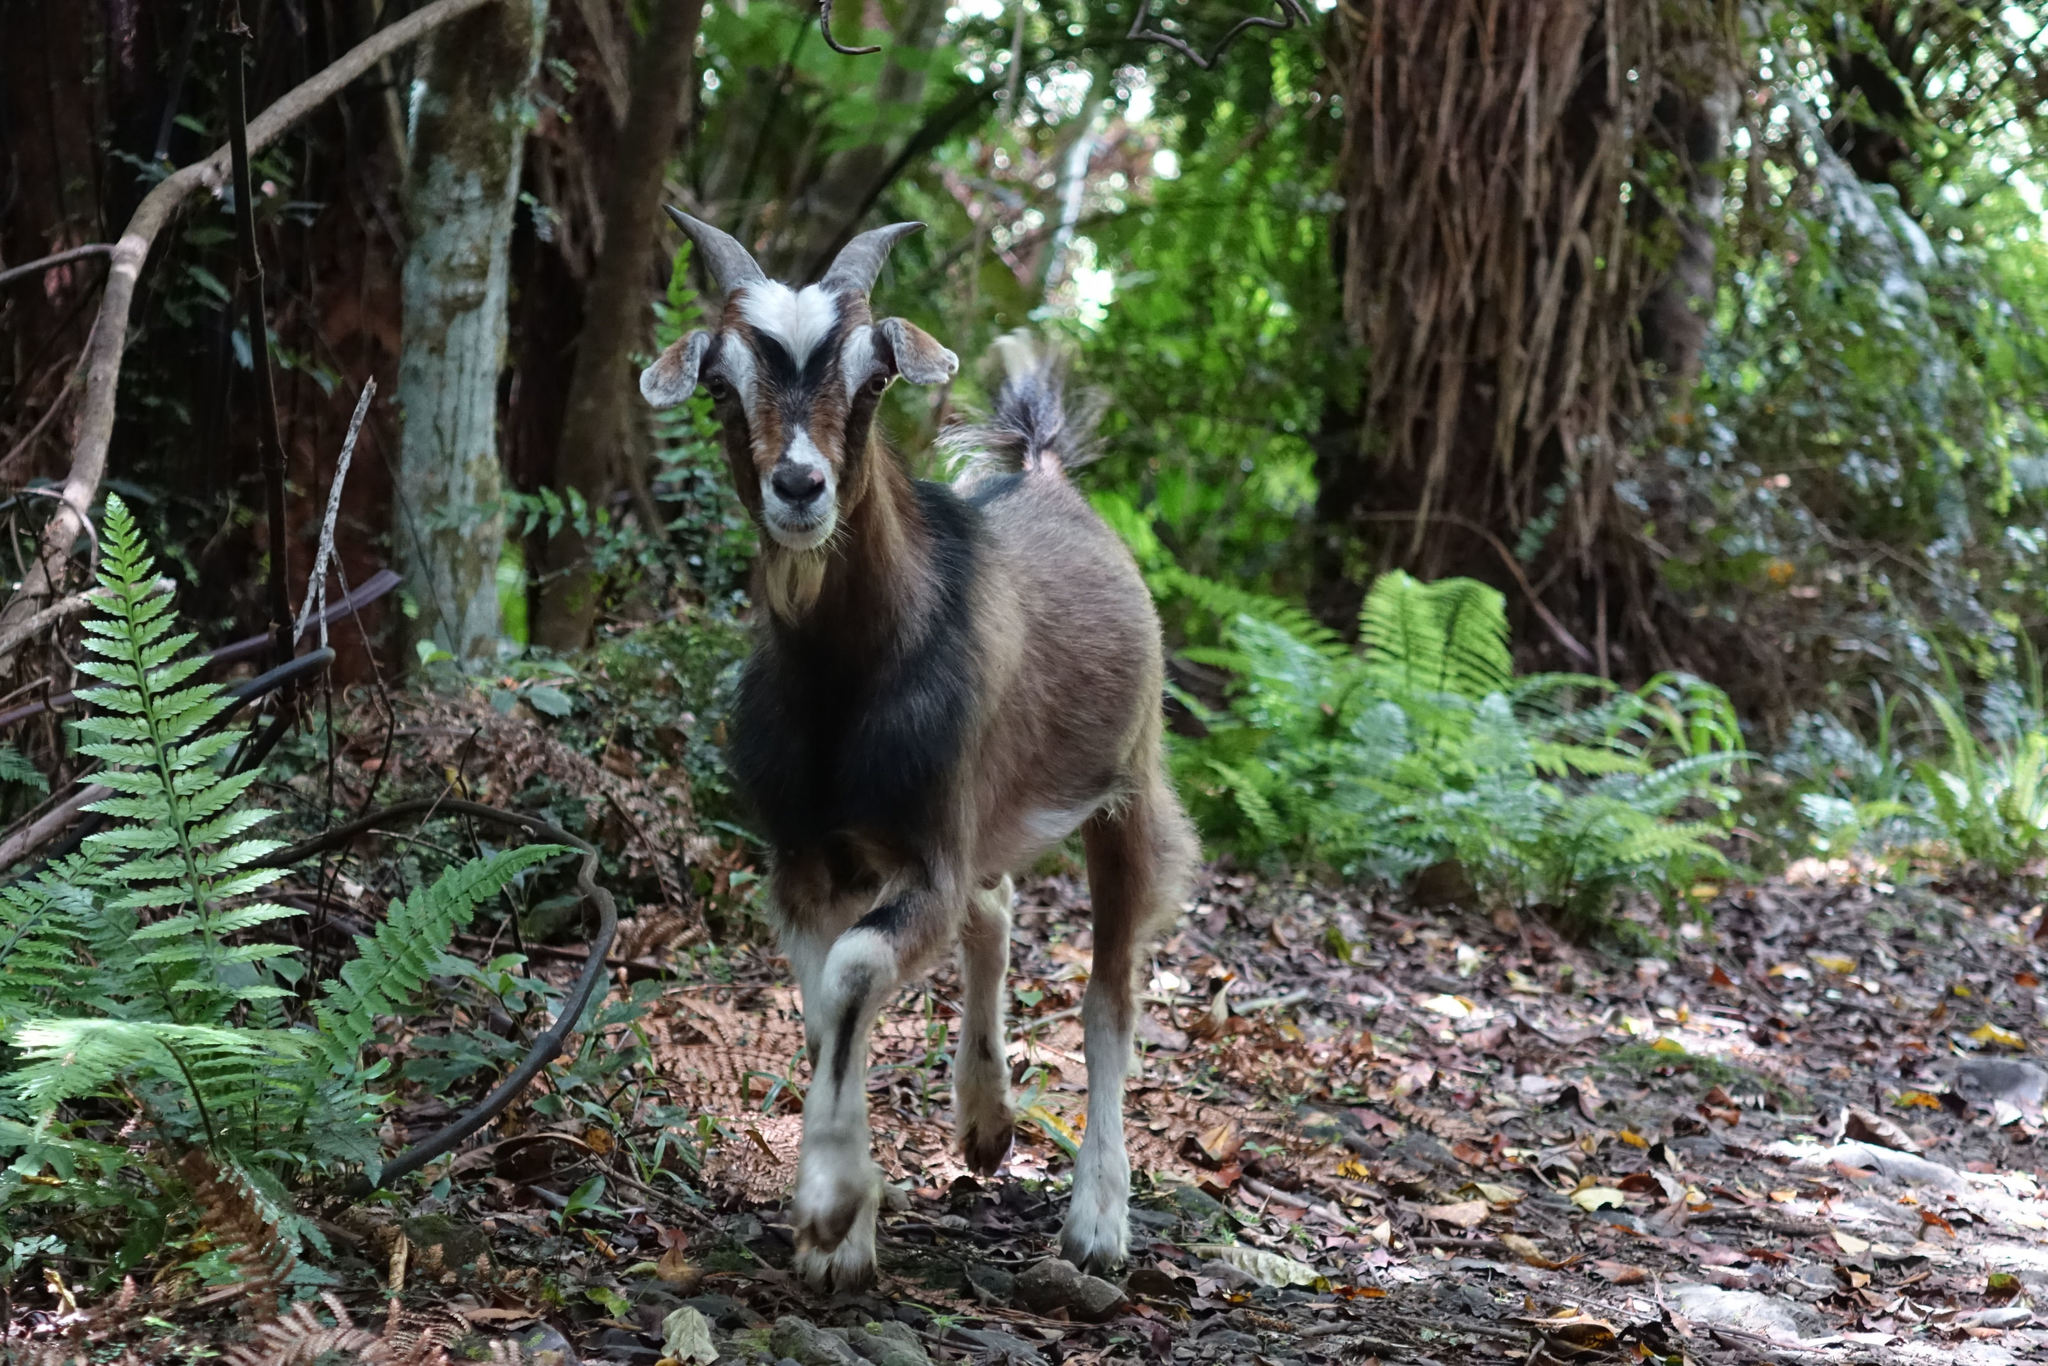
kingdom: Animalia
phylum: Chordata
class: Mammalia
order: Artiodactyla
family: Bovidae
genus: Capra
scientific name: Capra hircus
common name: Domestic goat
